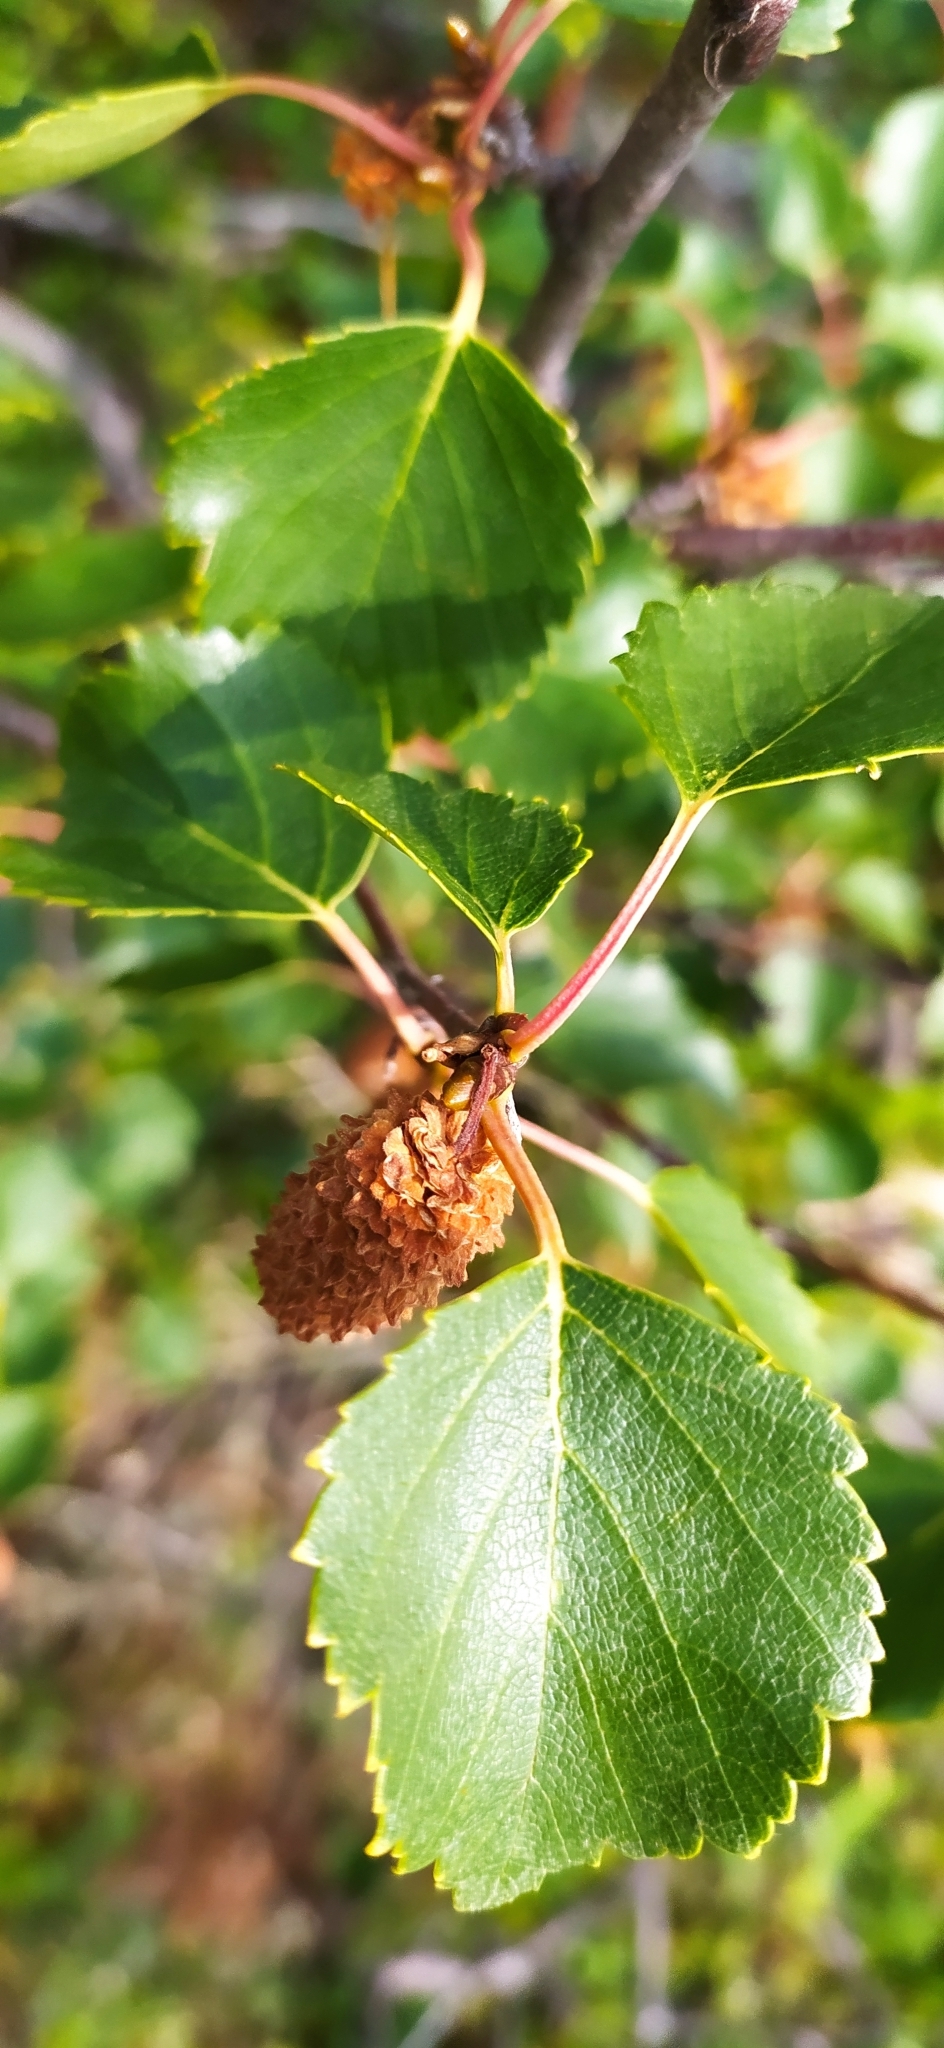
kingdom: Plantae
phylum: Tracheophyta
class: Magnoliopsida
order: Fagales
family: Betulaceae
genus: Betula
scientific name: Betula pubescens
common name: Downy birch
